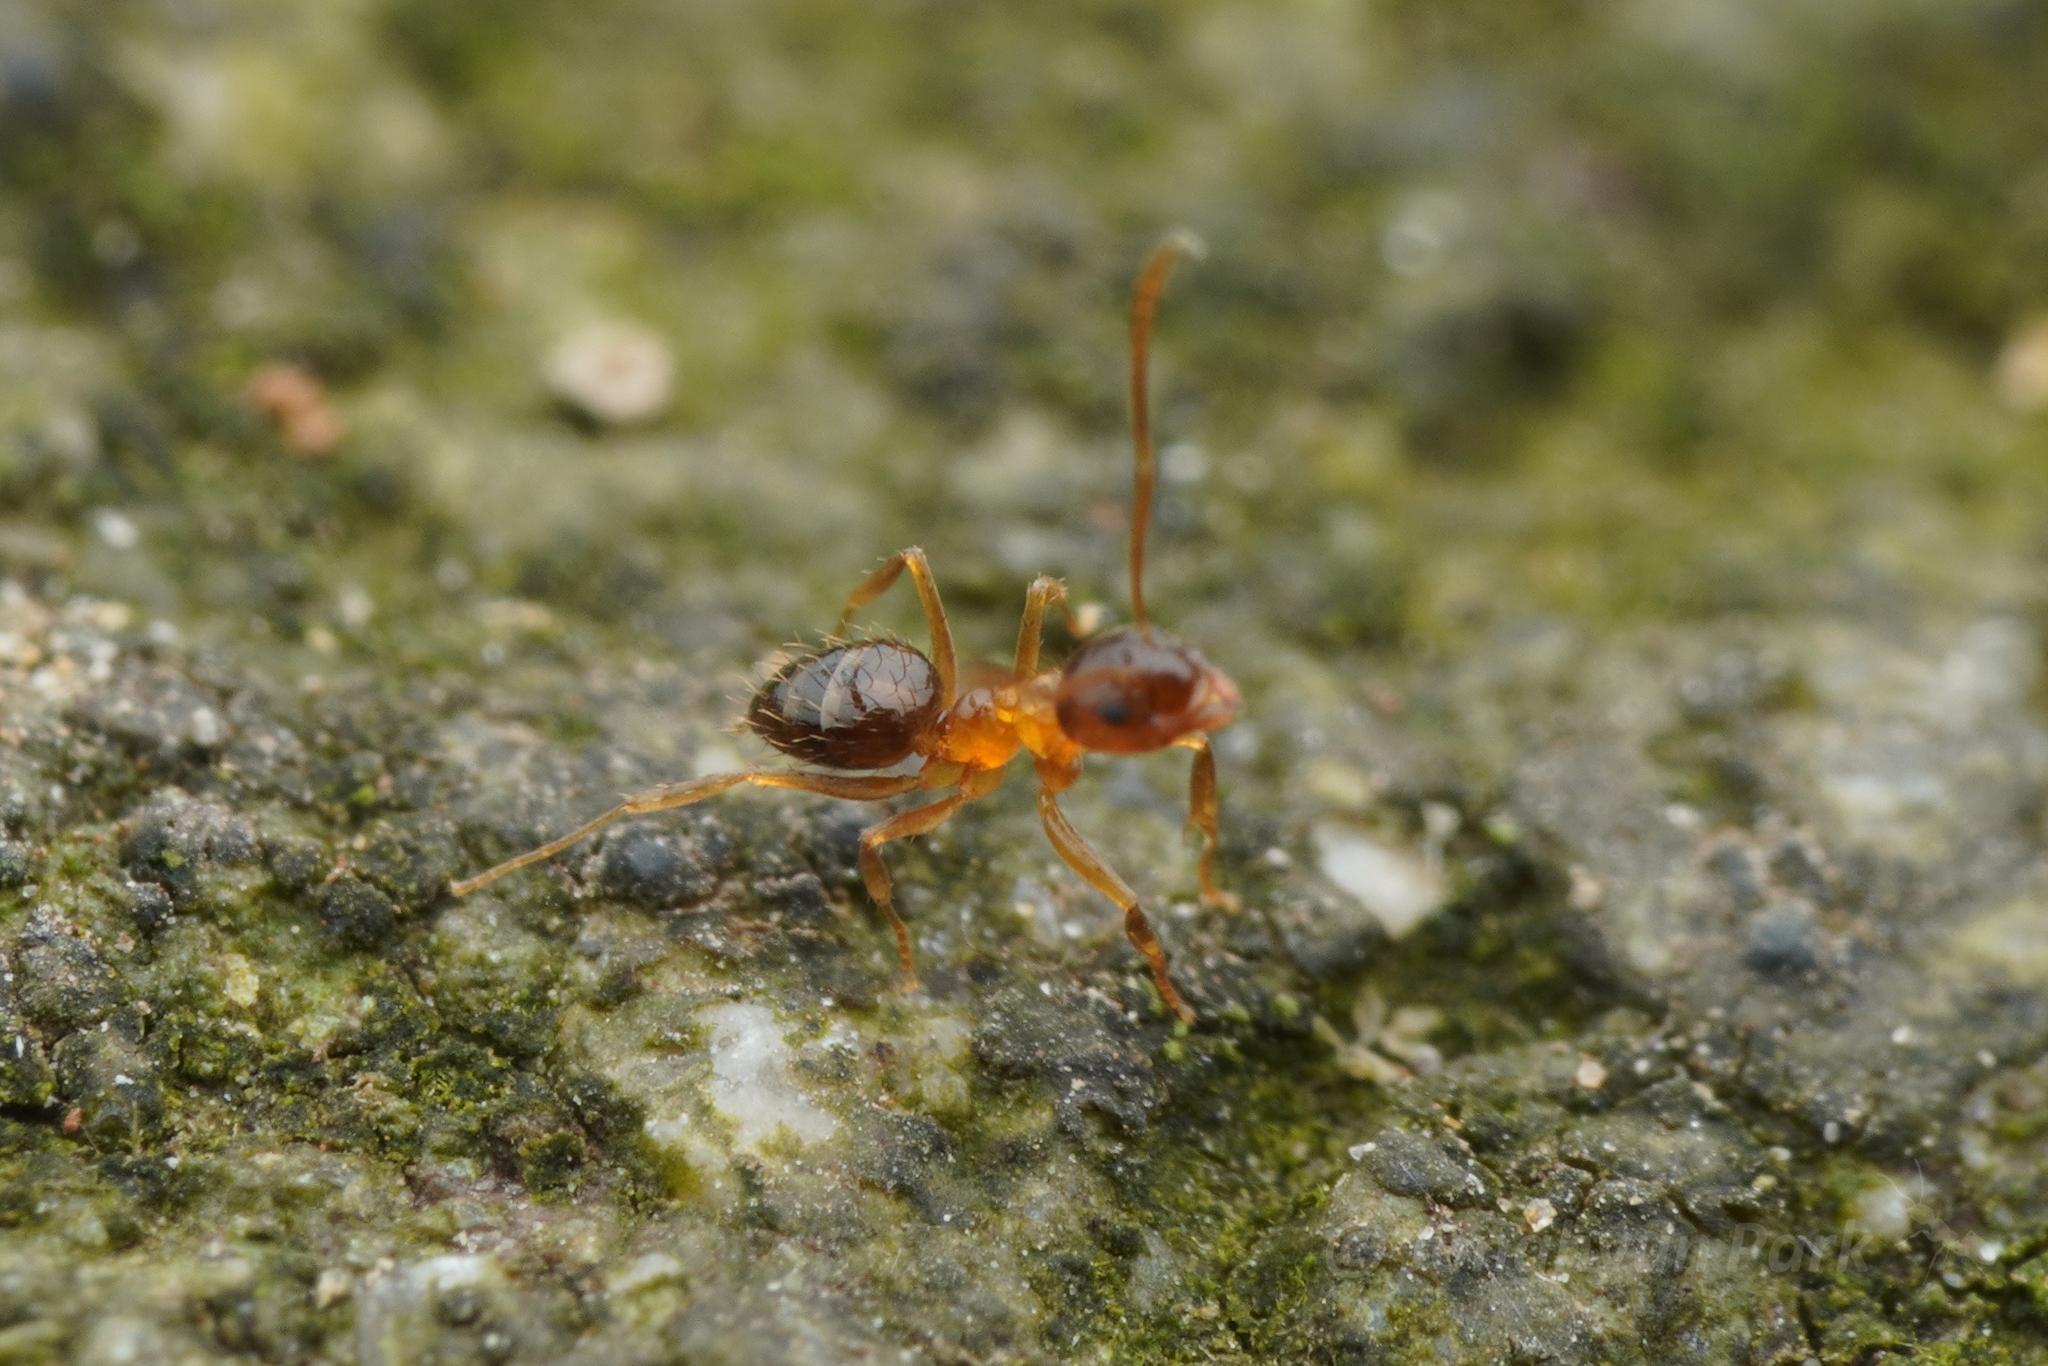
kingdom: Animalia
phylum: Arthropoda
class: Insecta
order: Hymenoptera
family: Formicidae
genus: Paratrechina
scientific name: Paratrechina flavipes
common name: Eastern asian formicine ant
